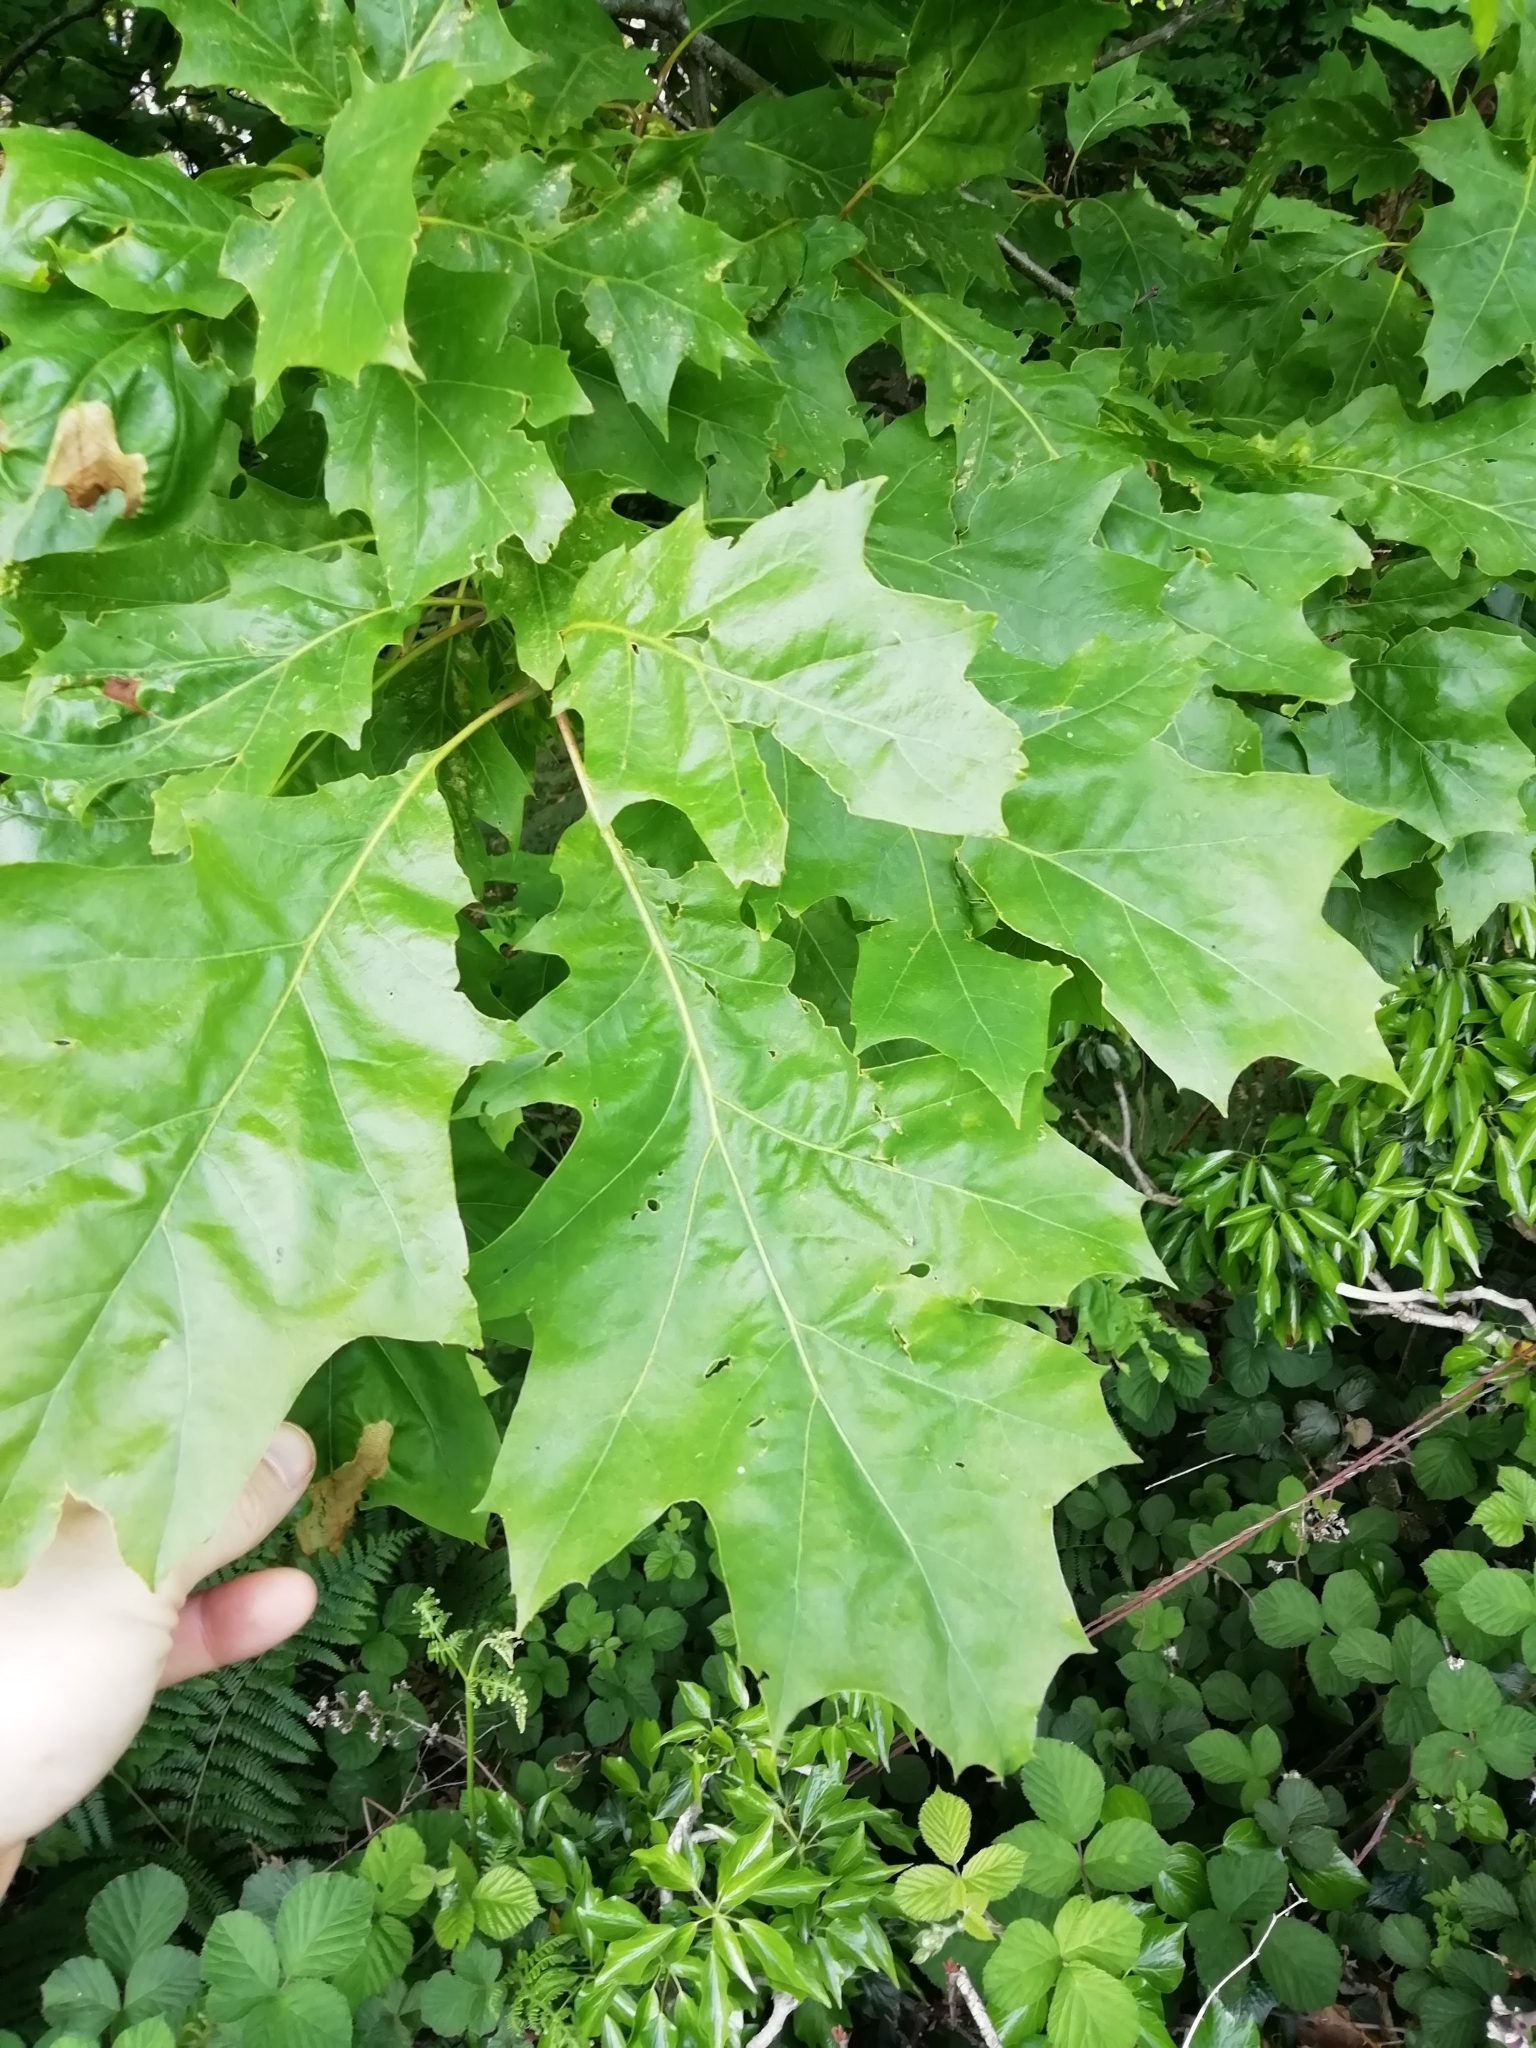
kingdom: Plantae
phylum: Tracheophyta
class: Magnoliopsida
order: Fagales
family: Fagaceae
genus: Quercus
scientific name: Quercus rubra
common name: Red oak
